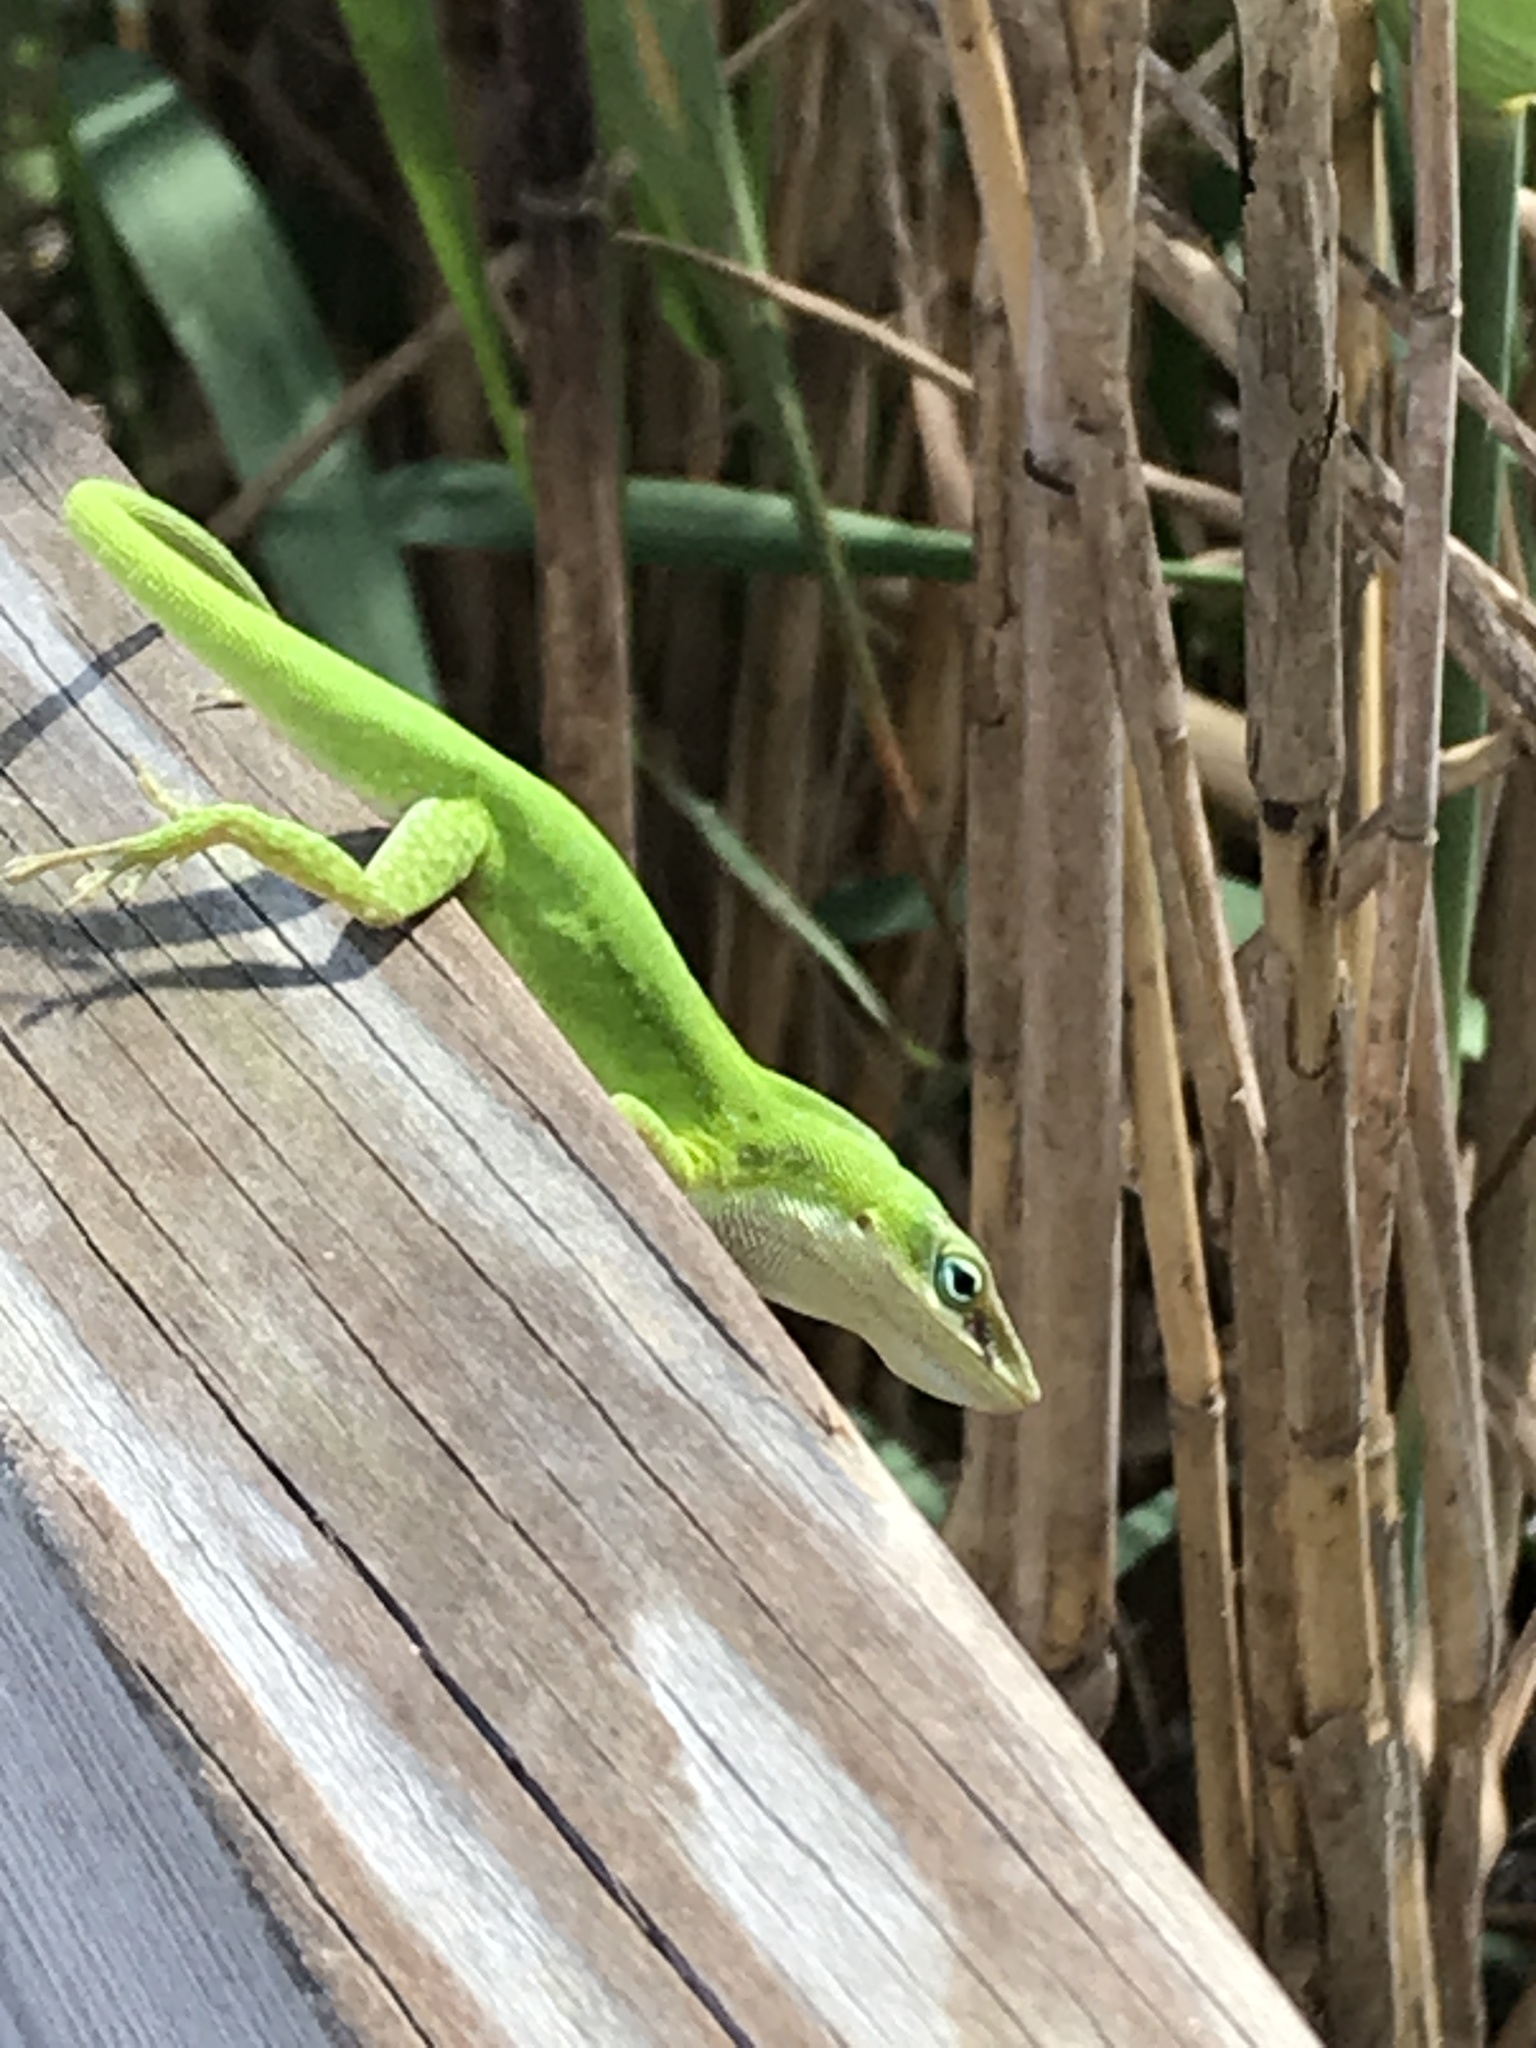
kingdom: Animalia
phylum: Chordata
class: Squamata
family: Dactyloidae
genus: Anolis
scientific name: Anolis carolinensis
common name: Green anole
